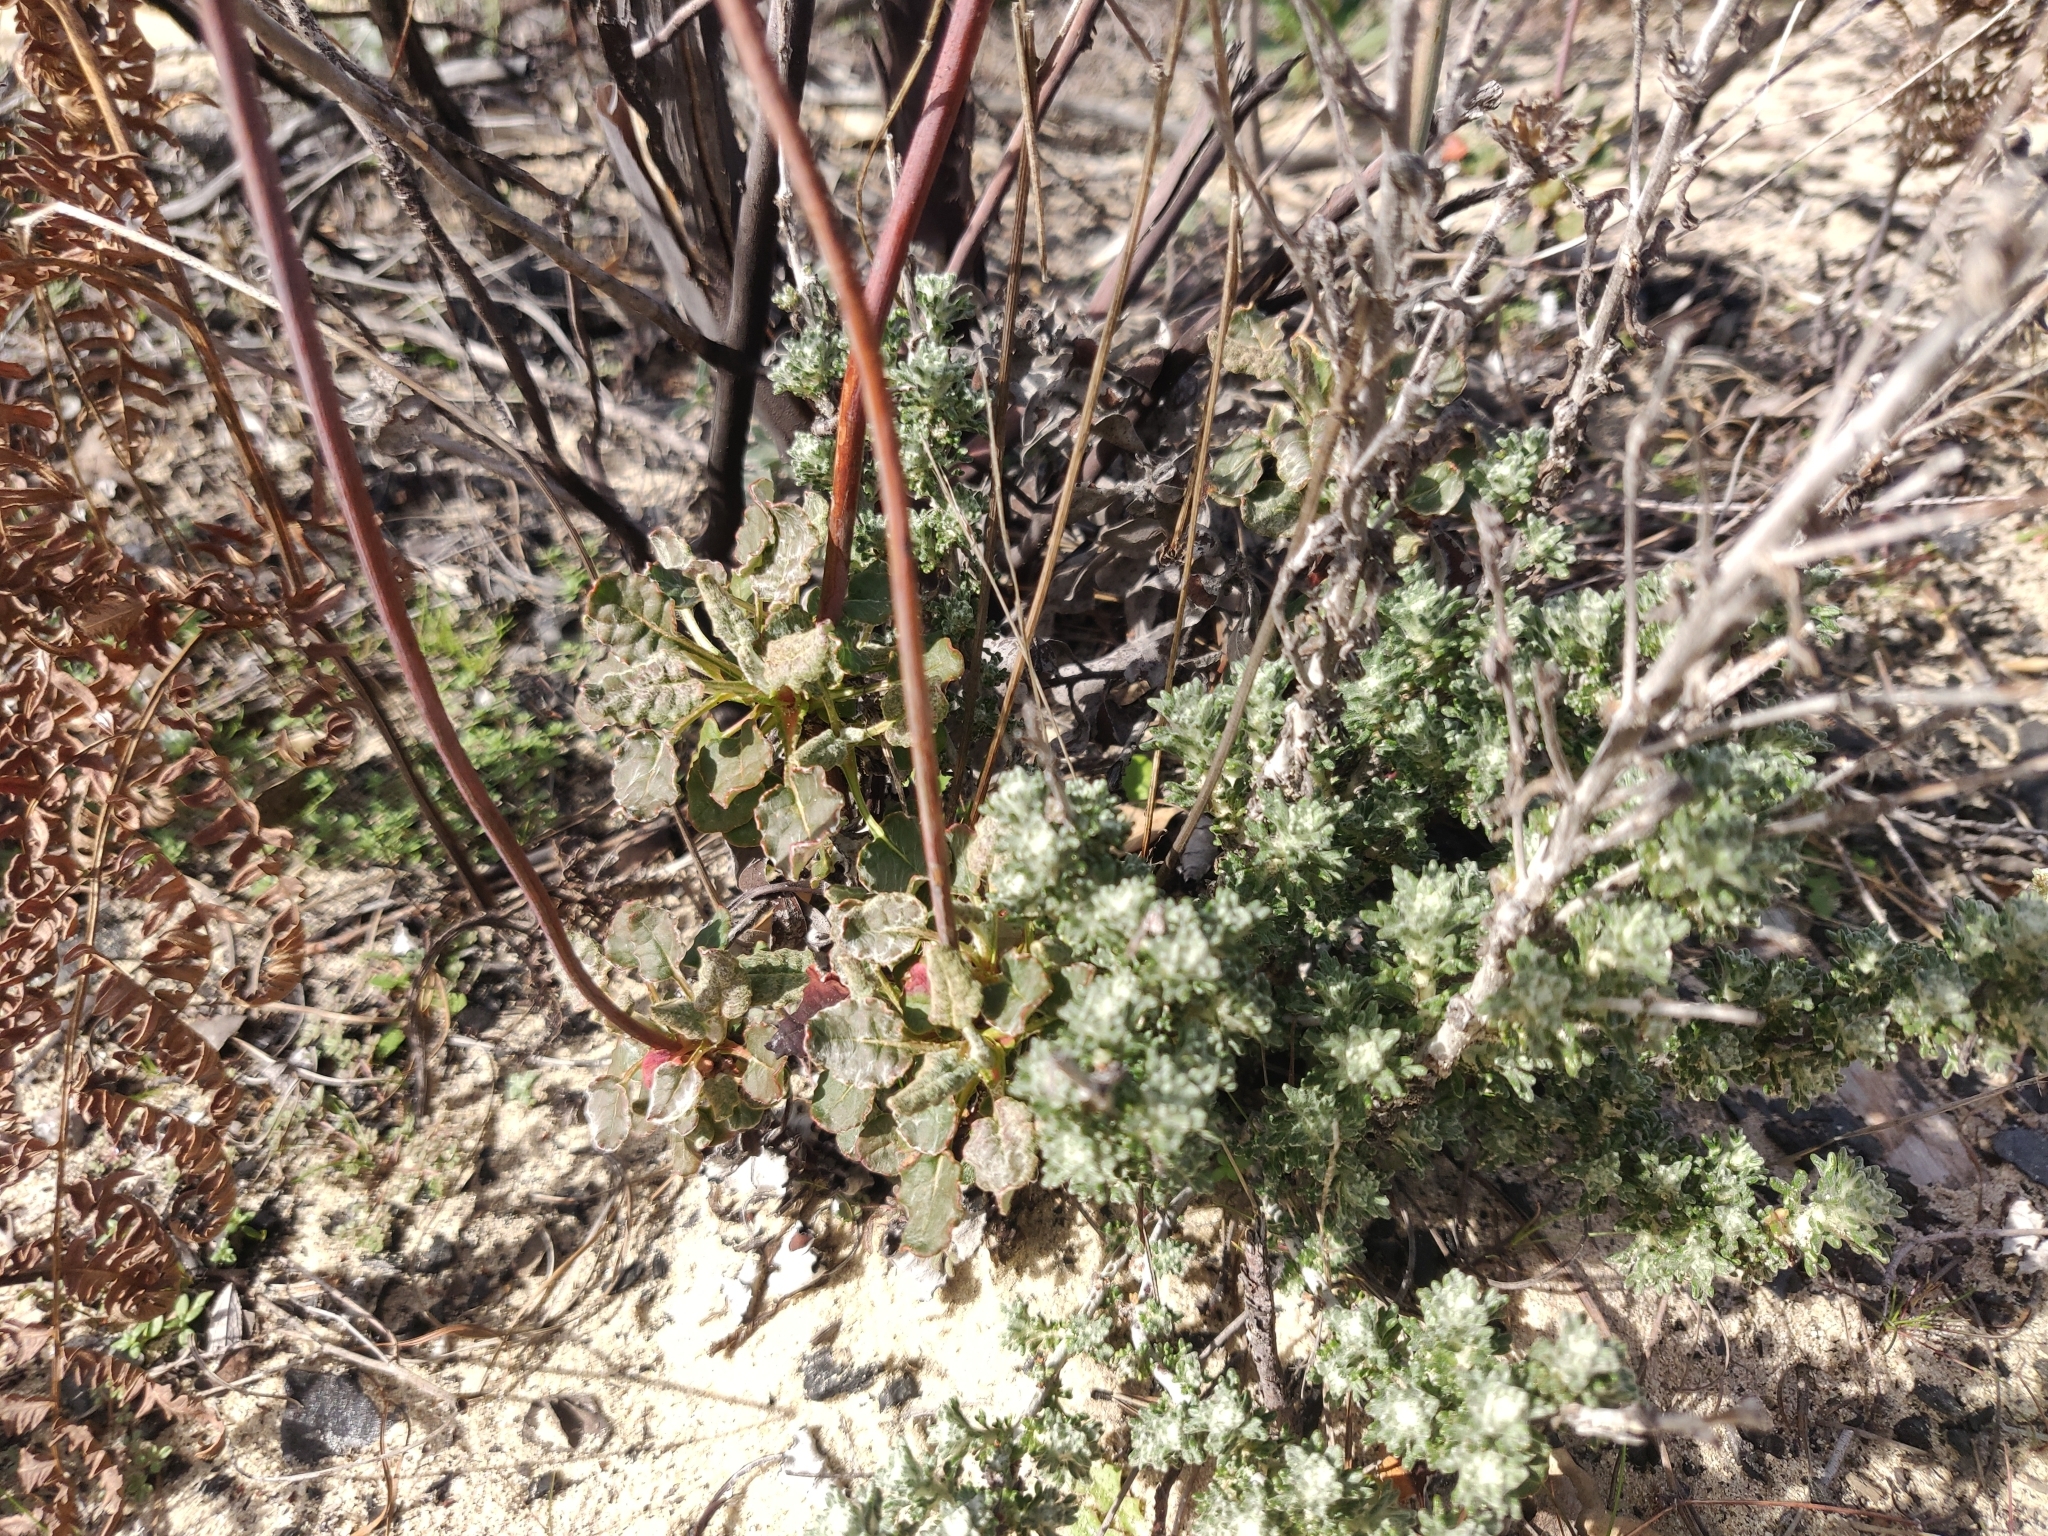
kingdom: Plantae
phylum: Tracheophyta
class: Magnoliopsida
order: Caryophyllales
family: Polygonaceae
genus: Eriogonum
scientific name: Eriogonum nudum
